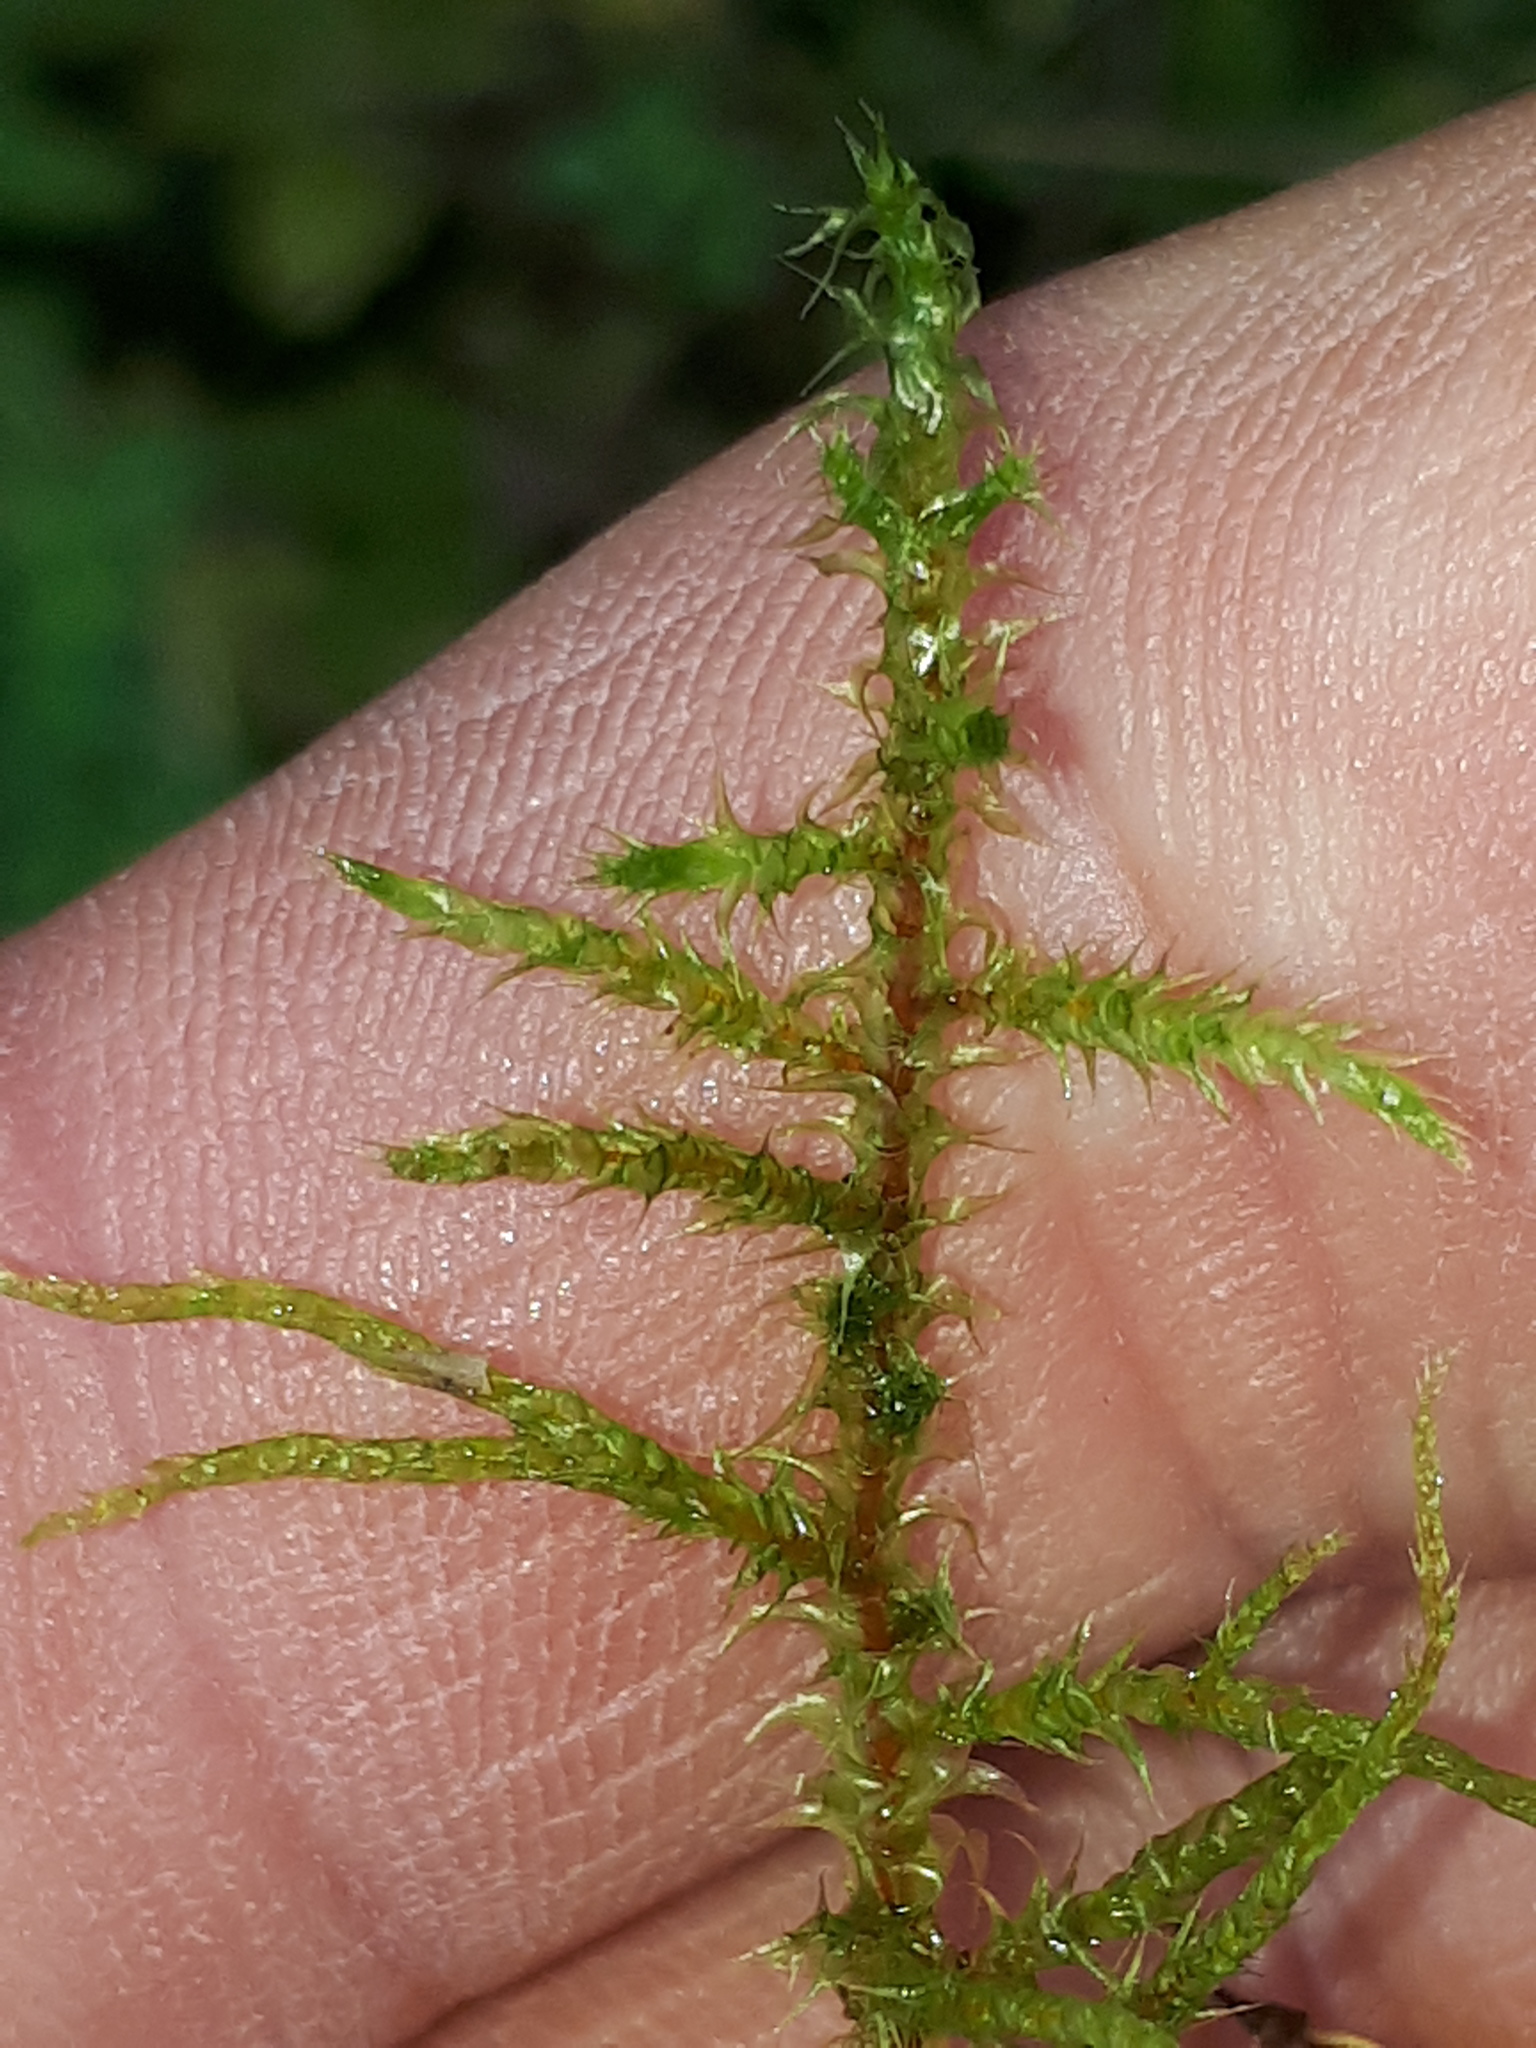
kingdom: Plantae
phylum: Bryophyta
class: Bryopsida
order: Hypnales
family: Hylocomiaceae
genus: Rhytidiadelphus
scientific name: Rhytidiadelphus squarrosus
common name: Springy turf-moss
